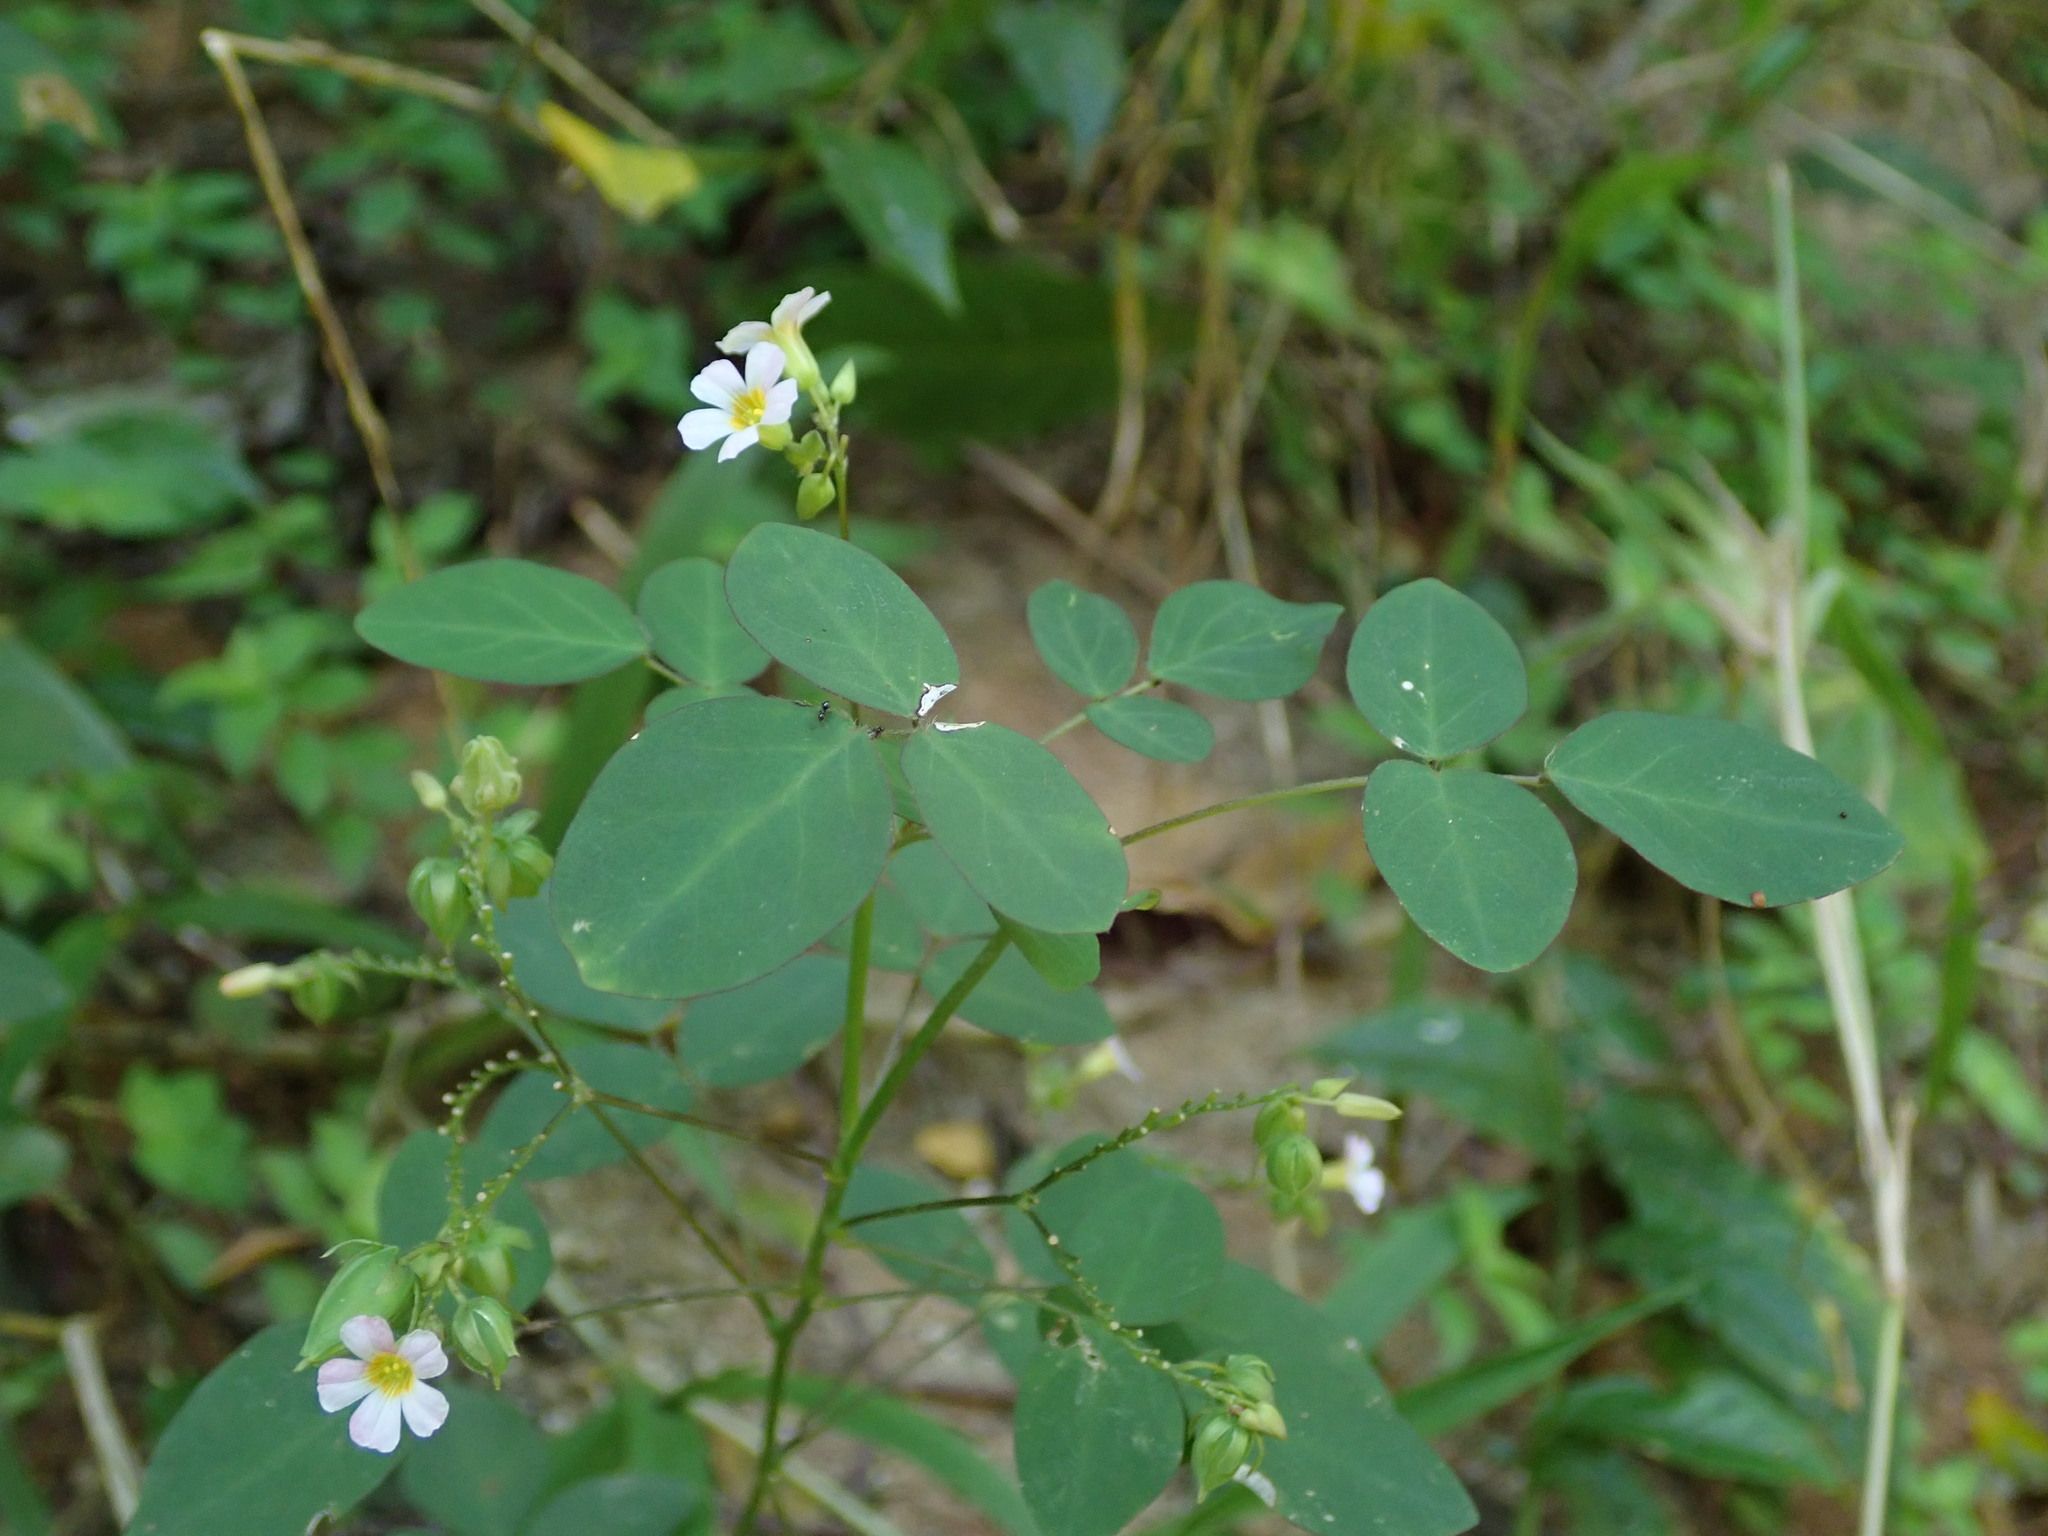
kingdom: Plantae
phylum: Tracheophyta
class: Magnoliopsida
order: Oxalidales
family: Oxalidaceae
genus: Oxalis
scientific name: Oxalis barrelieri
